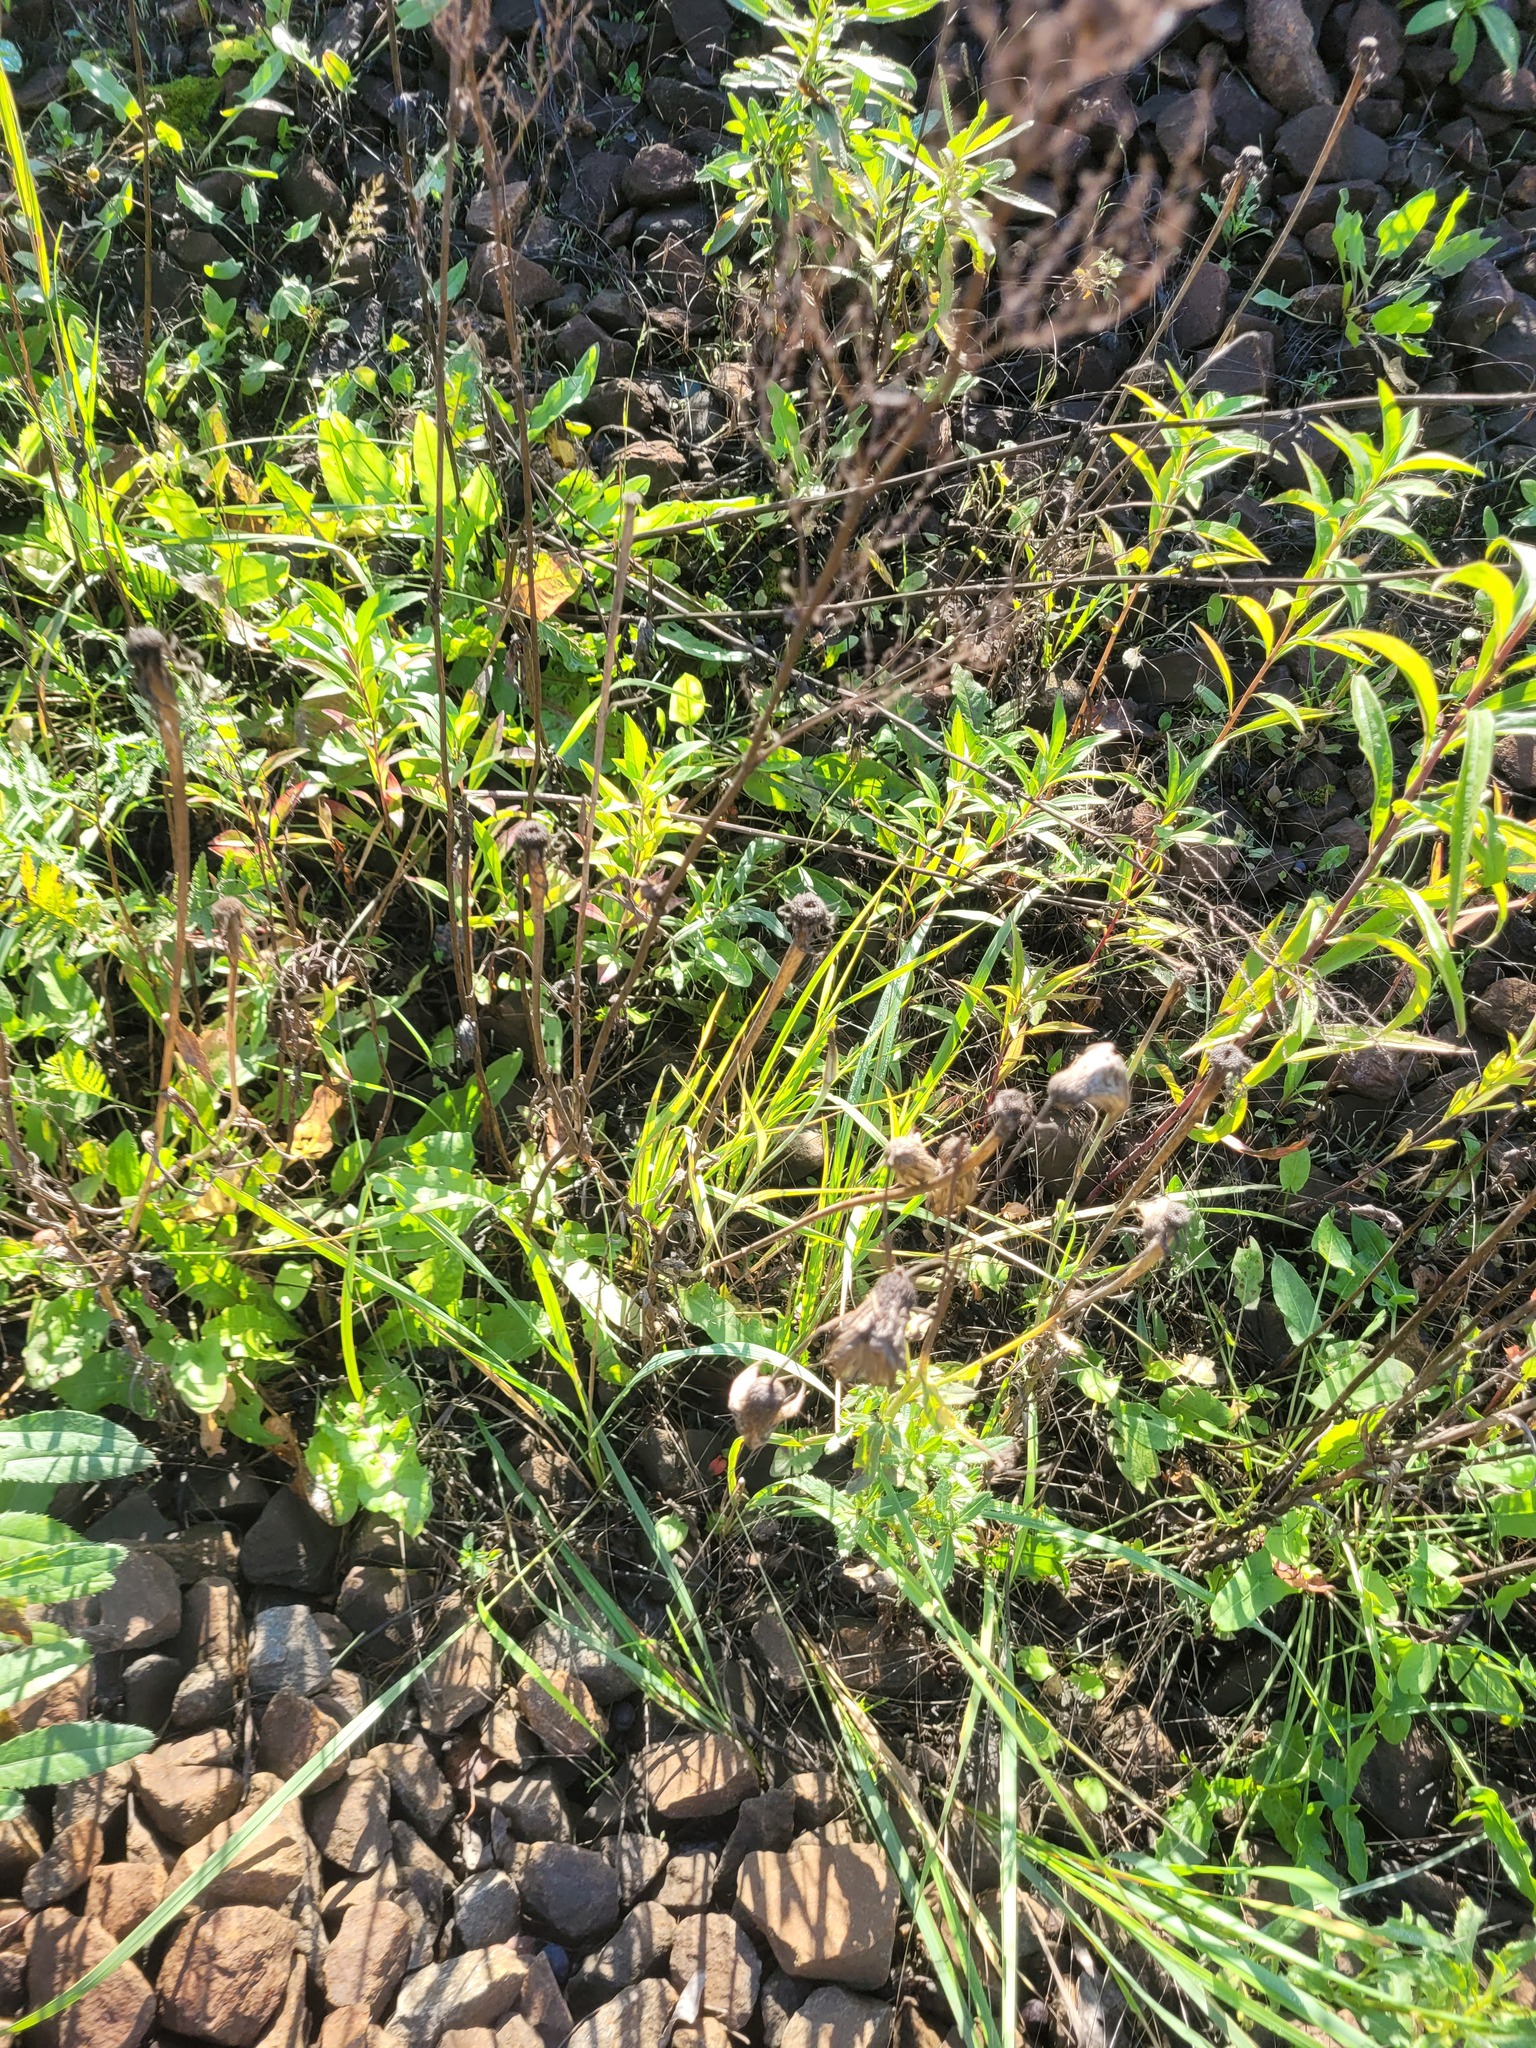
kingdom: Plantae
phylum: Tracheophyta
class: Magnoliopsida
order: Asterales
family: Asteraceae
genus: Tragopogon
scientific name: Tragopogon dubius
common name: Yellow salsify
